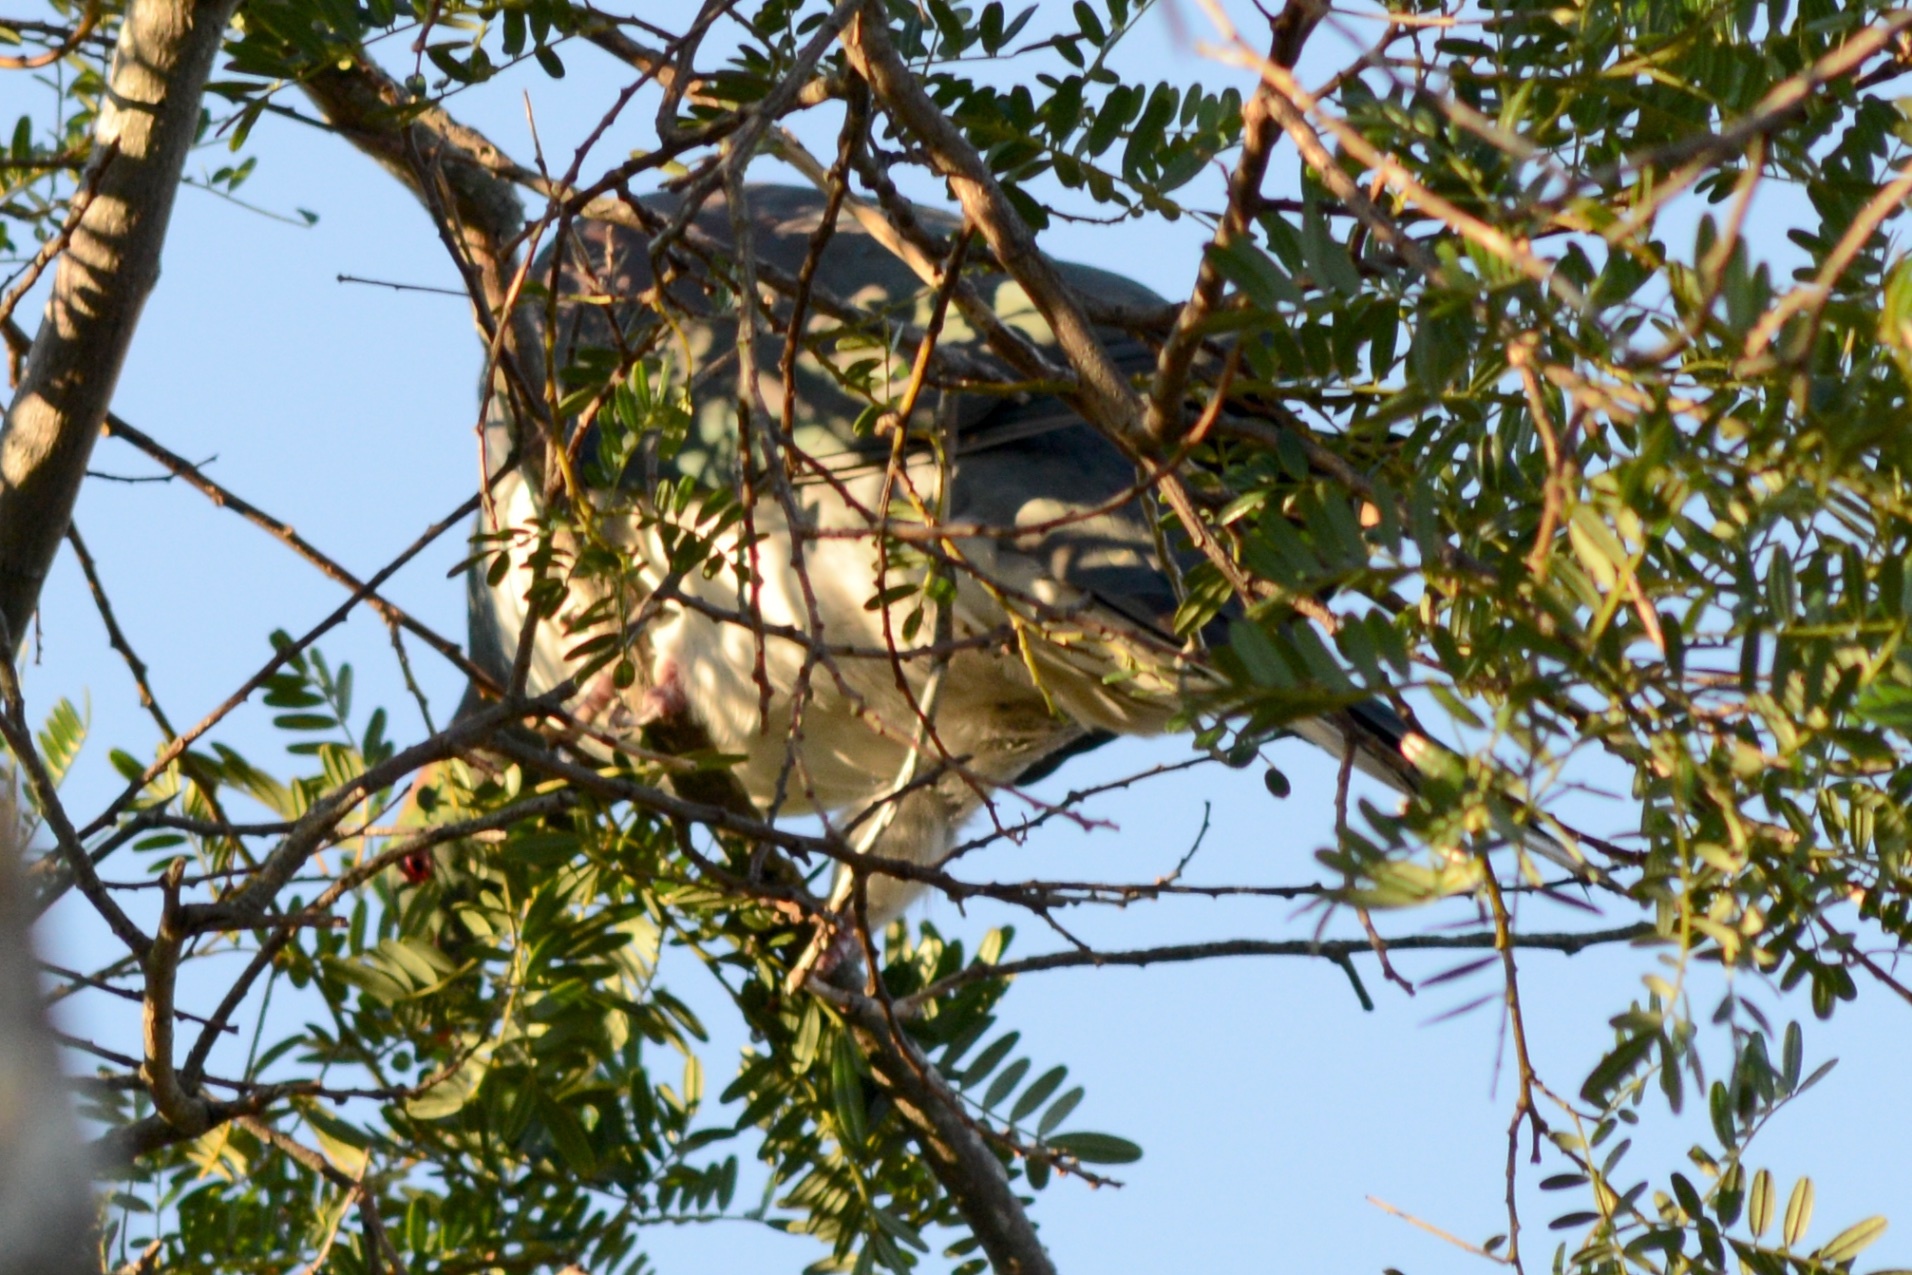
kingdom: Animalia
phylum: Chordata
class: Aves
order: Columbiformes
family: Columbidae
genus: Hemiphaga
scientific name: Hemiphaga novaeseelandiae
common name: New zealand pigeon
